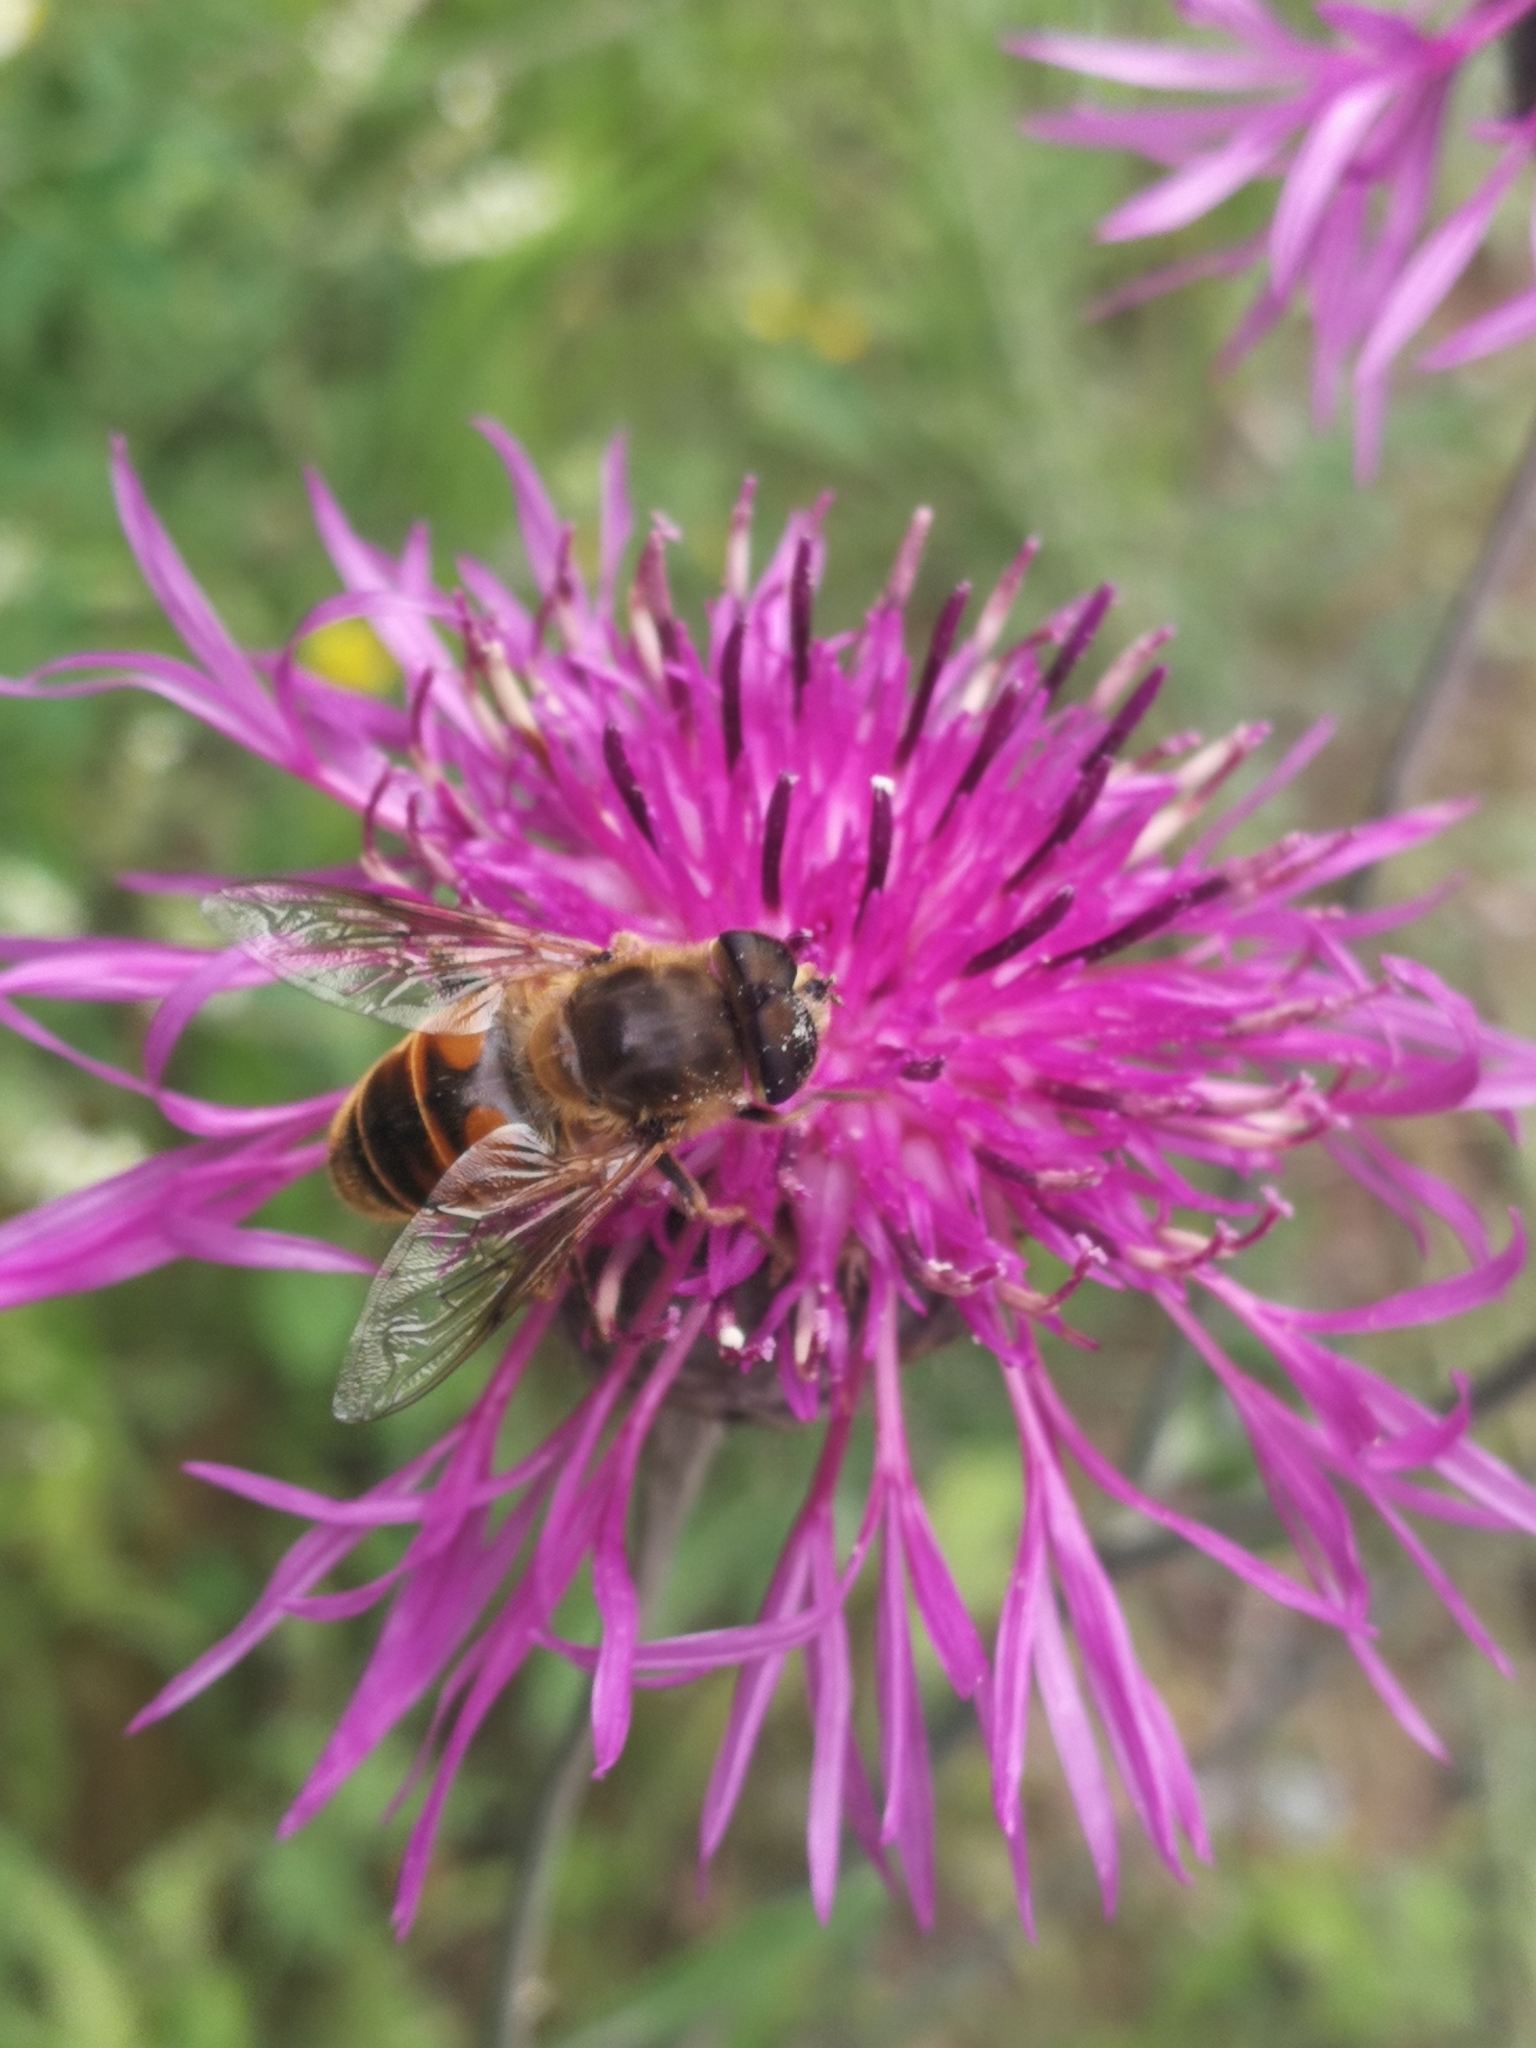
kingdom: Animalia
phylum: Arthropoda
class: Insecta
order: Diptera
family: Syrphidae
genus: Eristalis
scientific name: Eristalis tenax
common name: Drone fly
